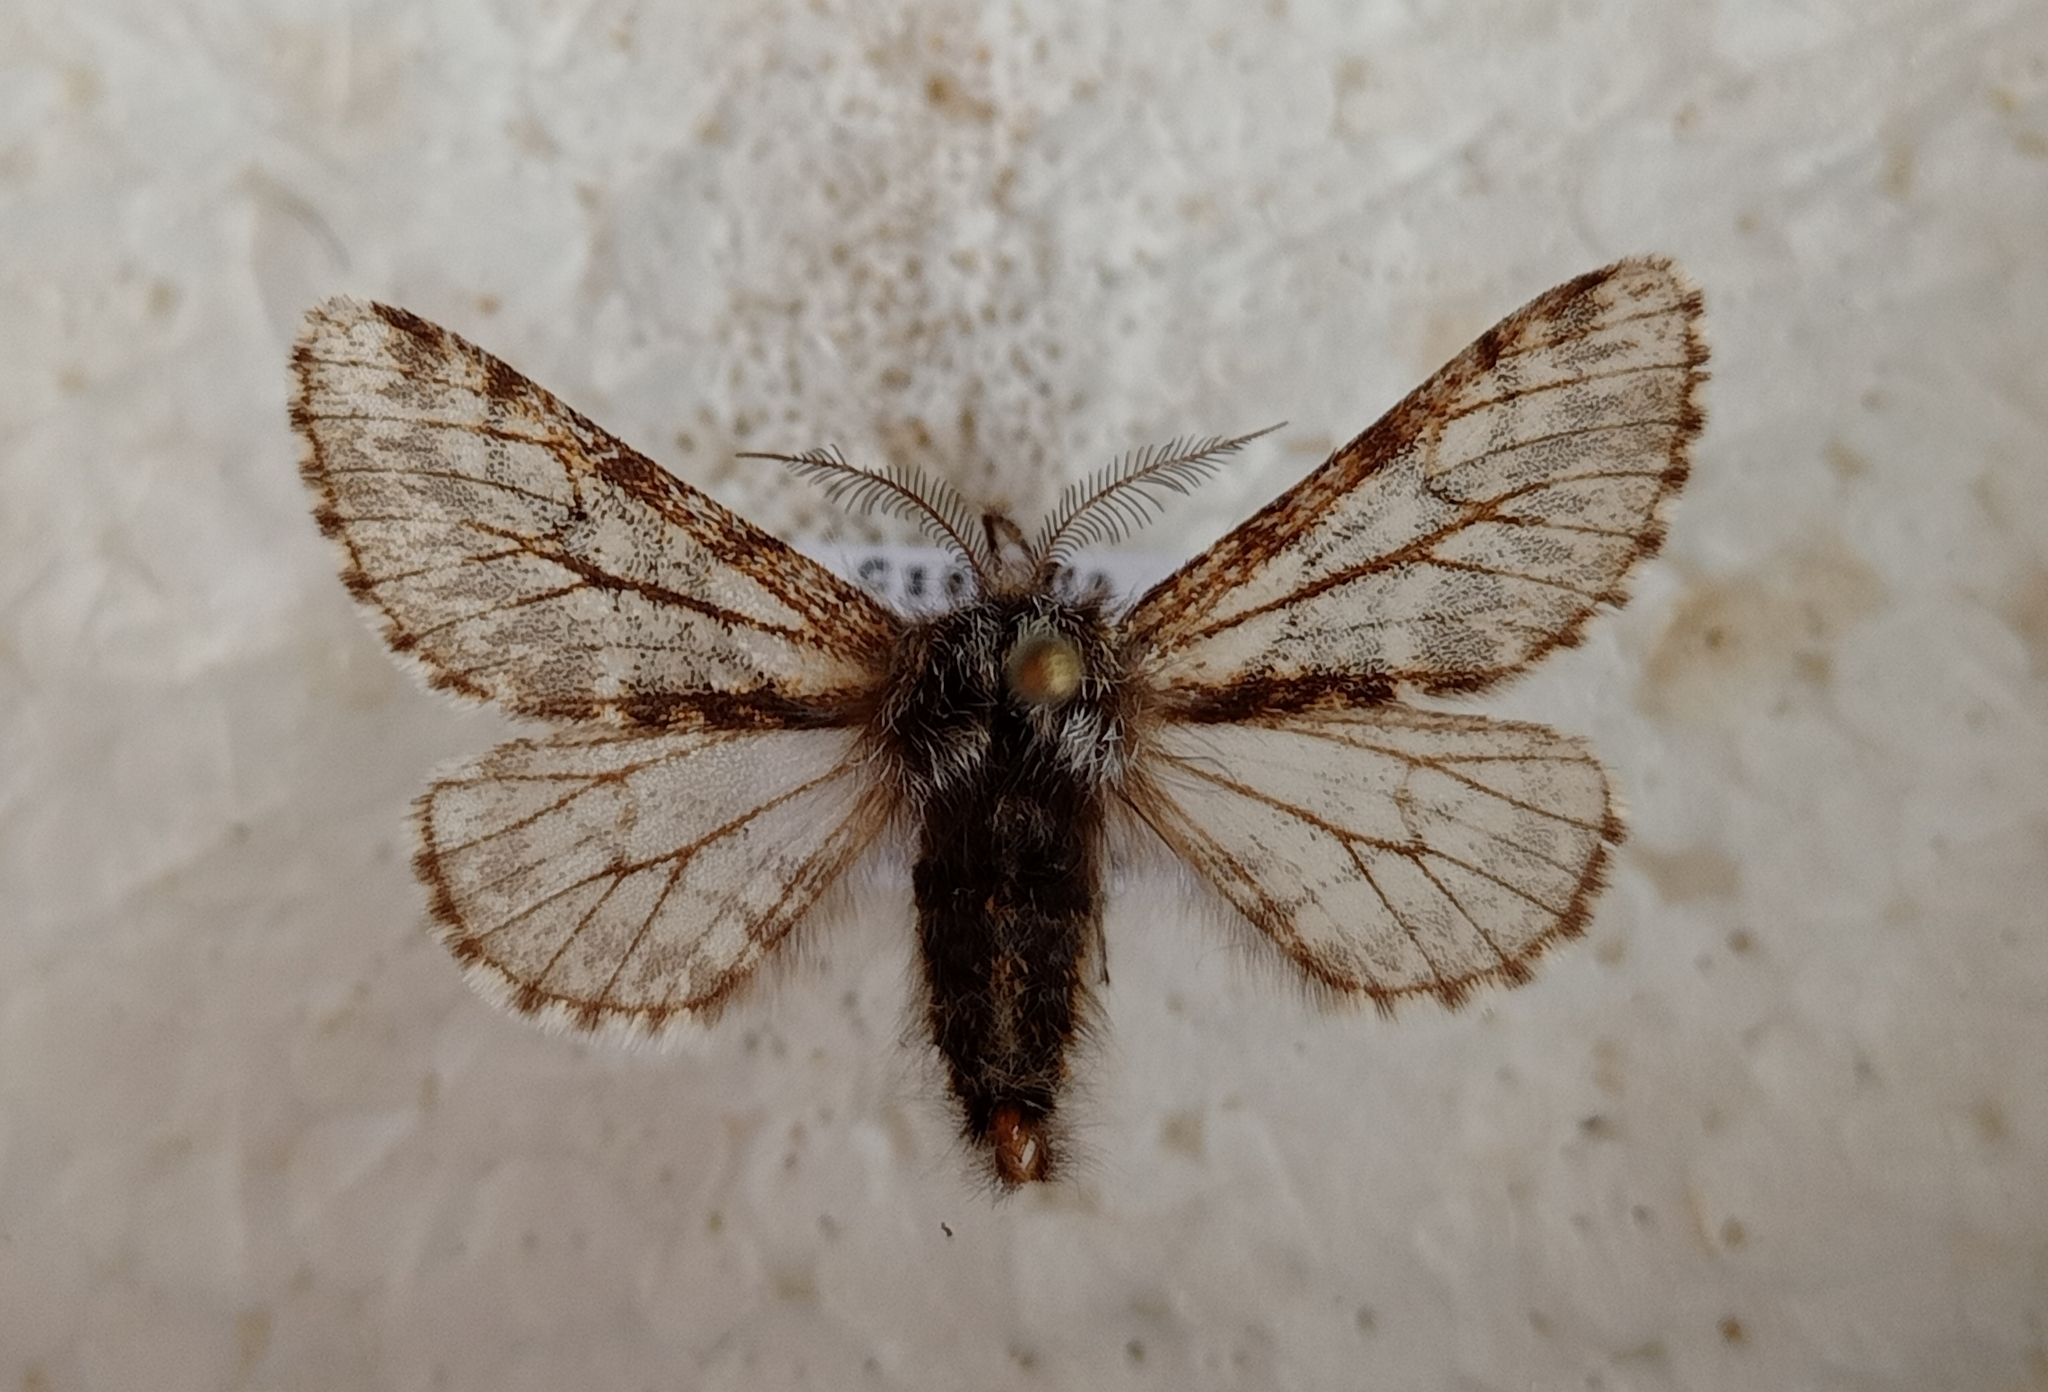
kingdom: Animalia
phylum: Arthropoda
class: Insecta
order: Lepidoptera
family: Geometridae
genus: Lycia
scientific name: Lycia pomonaria
